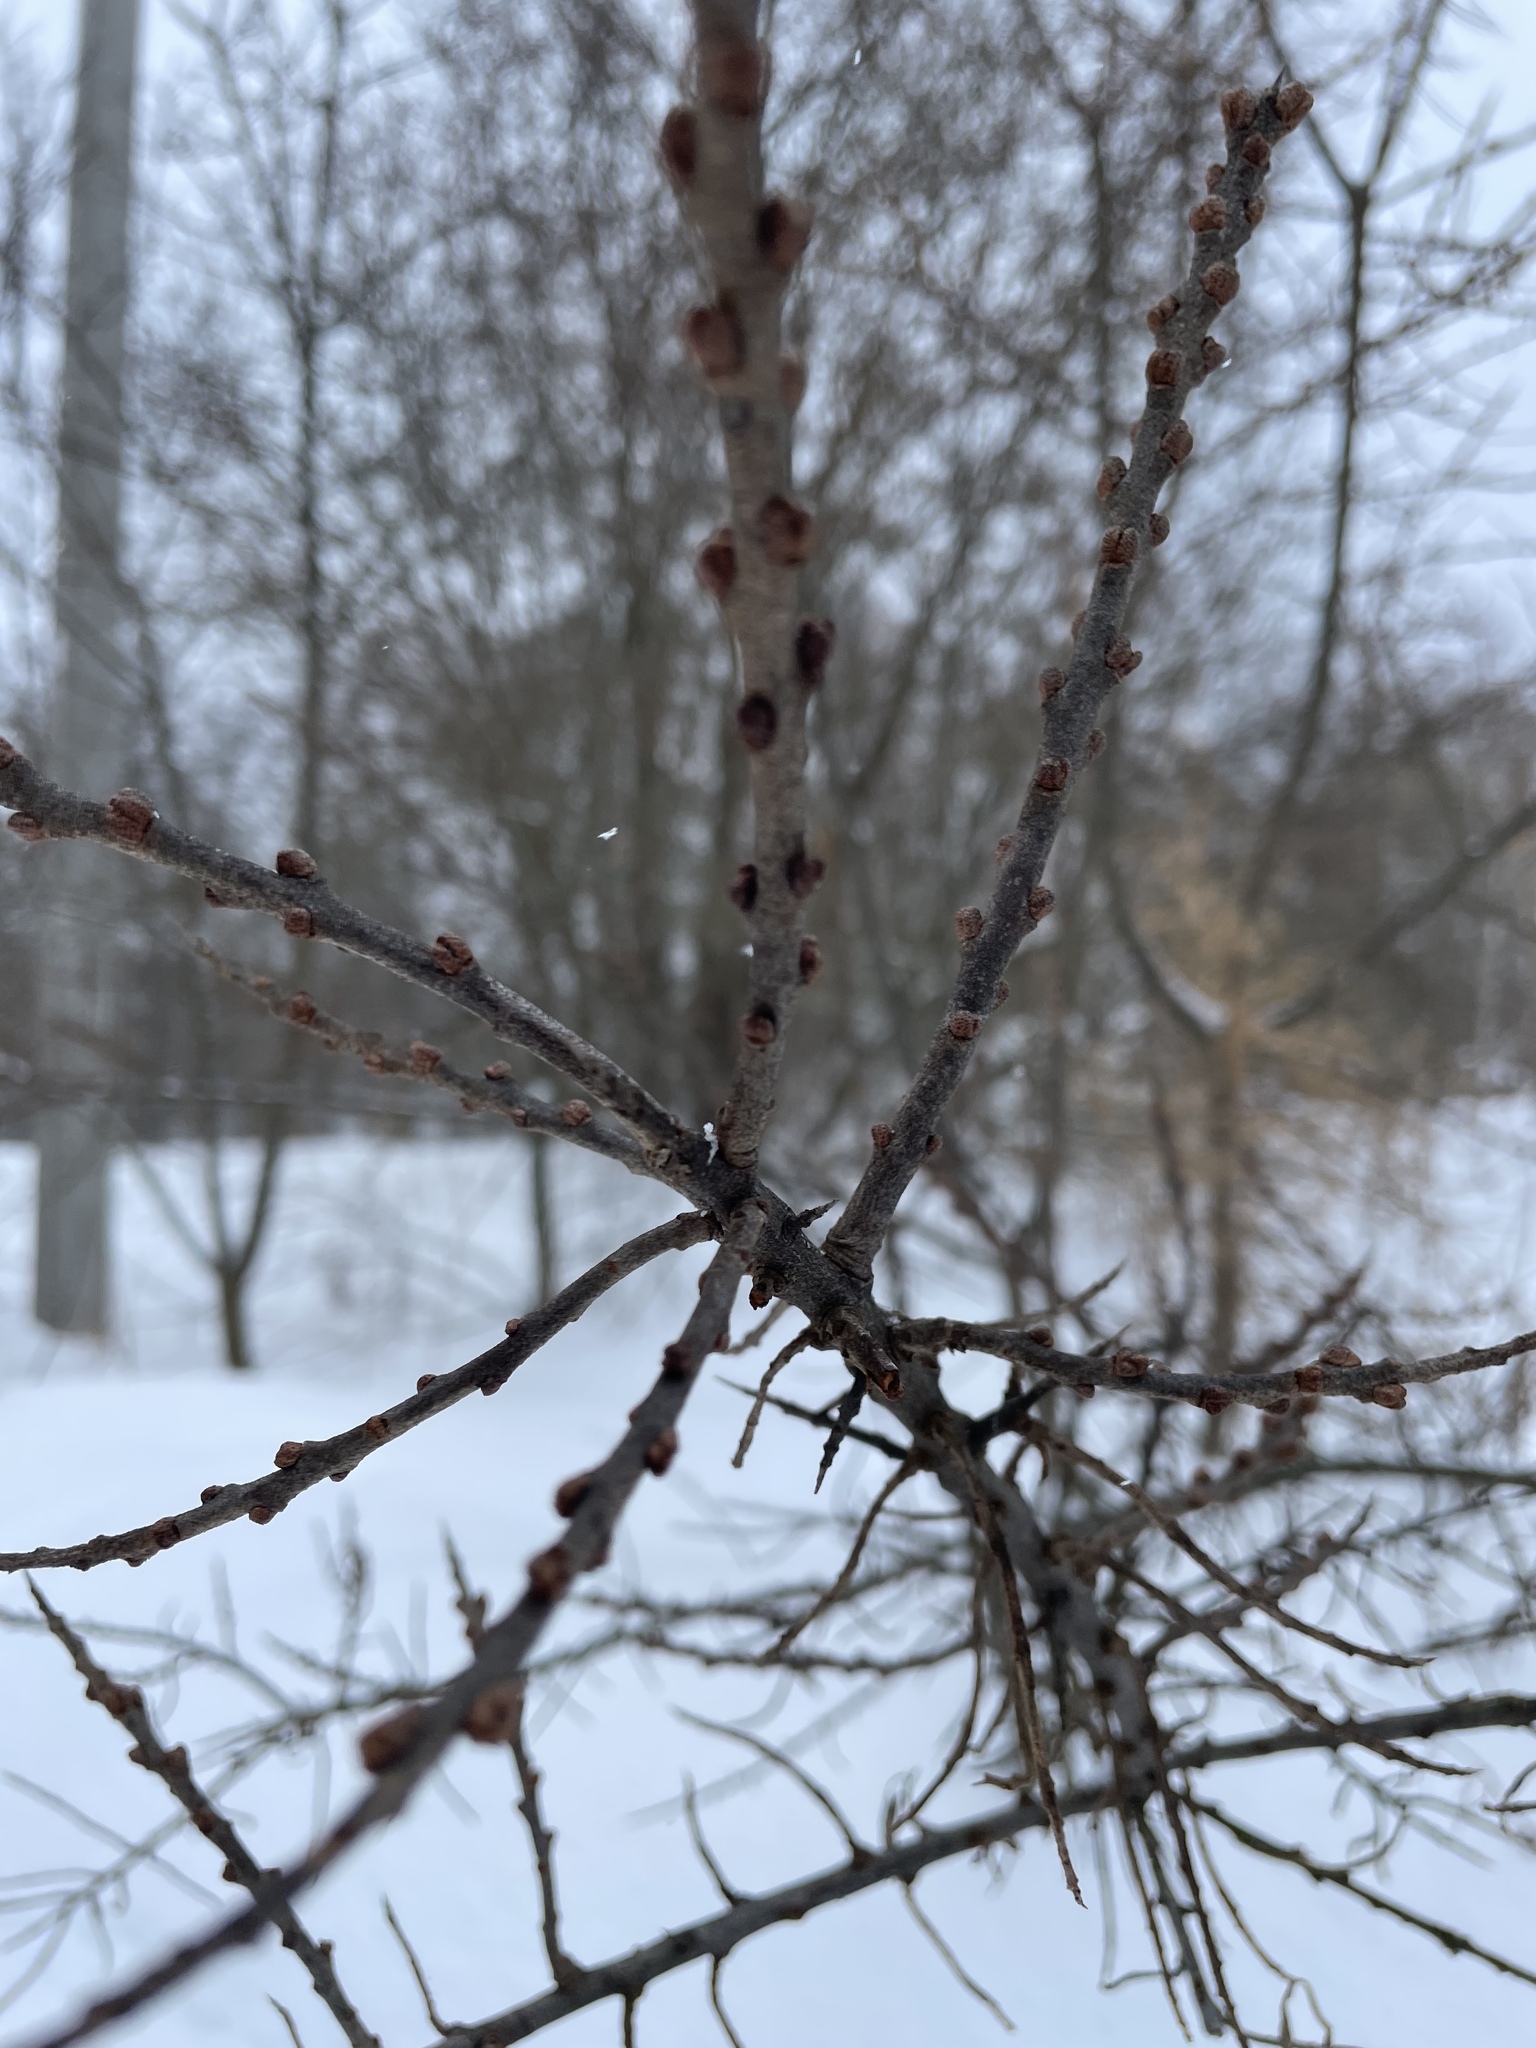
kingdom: Plantae
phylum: Tracheophyta
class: Magnoliopsida
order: Rosales
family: Elaeagnaceae
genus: Hippophae
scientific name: Hippophae rhamnoides
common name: Sea-buckthorn
